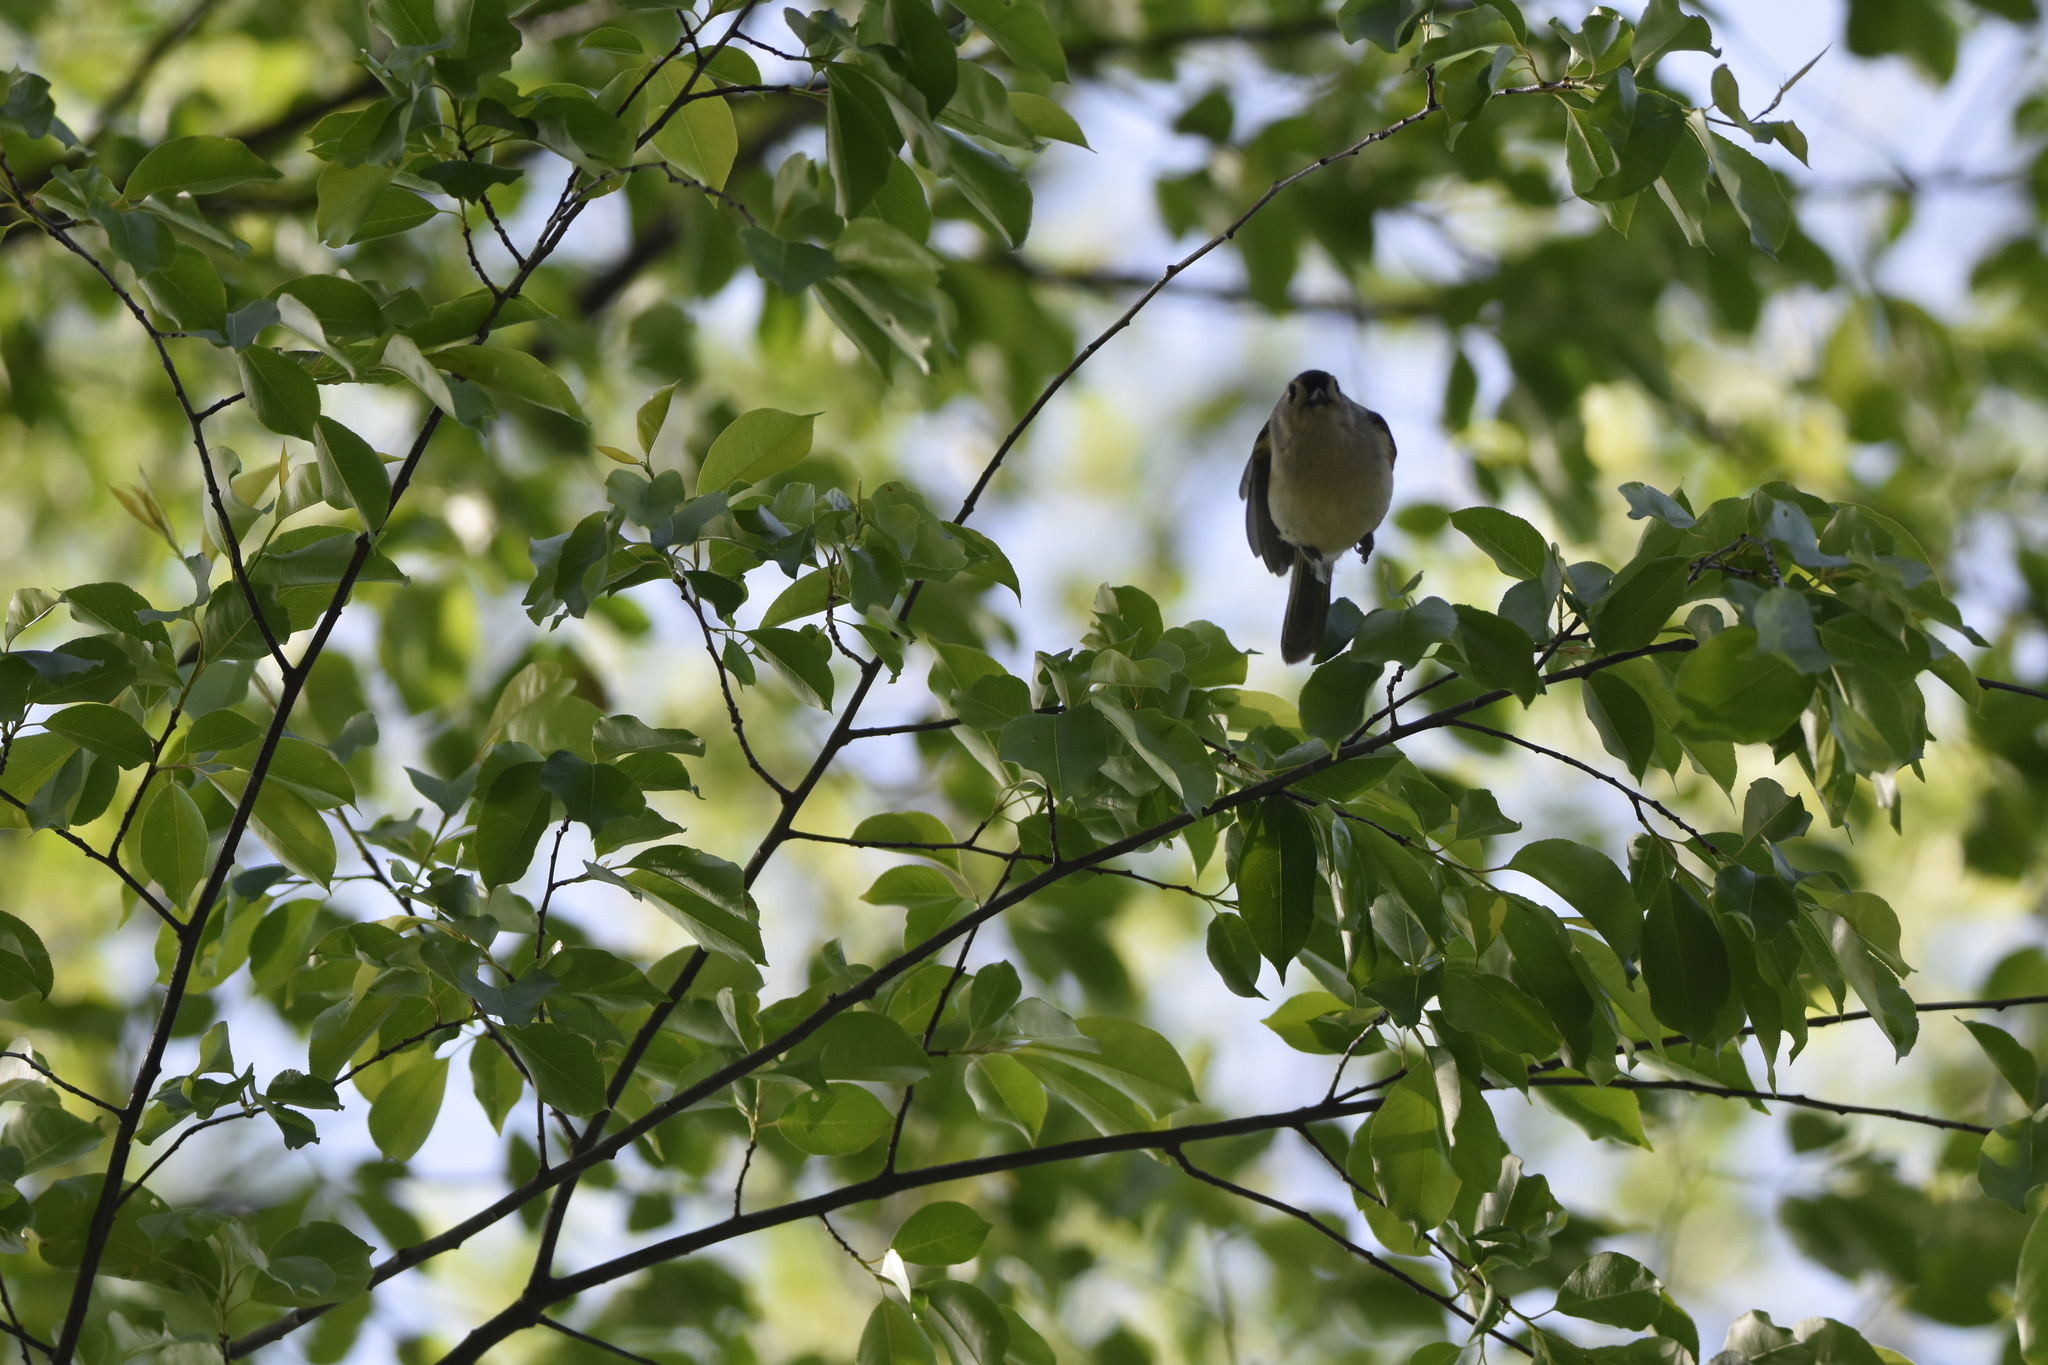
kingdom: Animalia
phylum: Chordata
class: Aves
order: Passeriformes
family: Paridae
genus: Baeolophus
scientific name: Baeolophus bicolor
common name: Tufted titmouse
